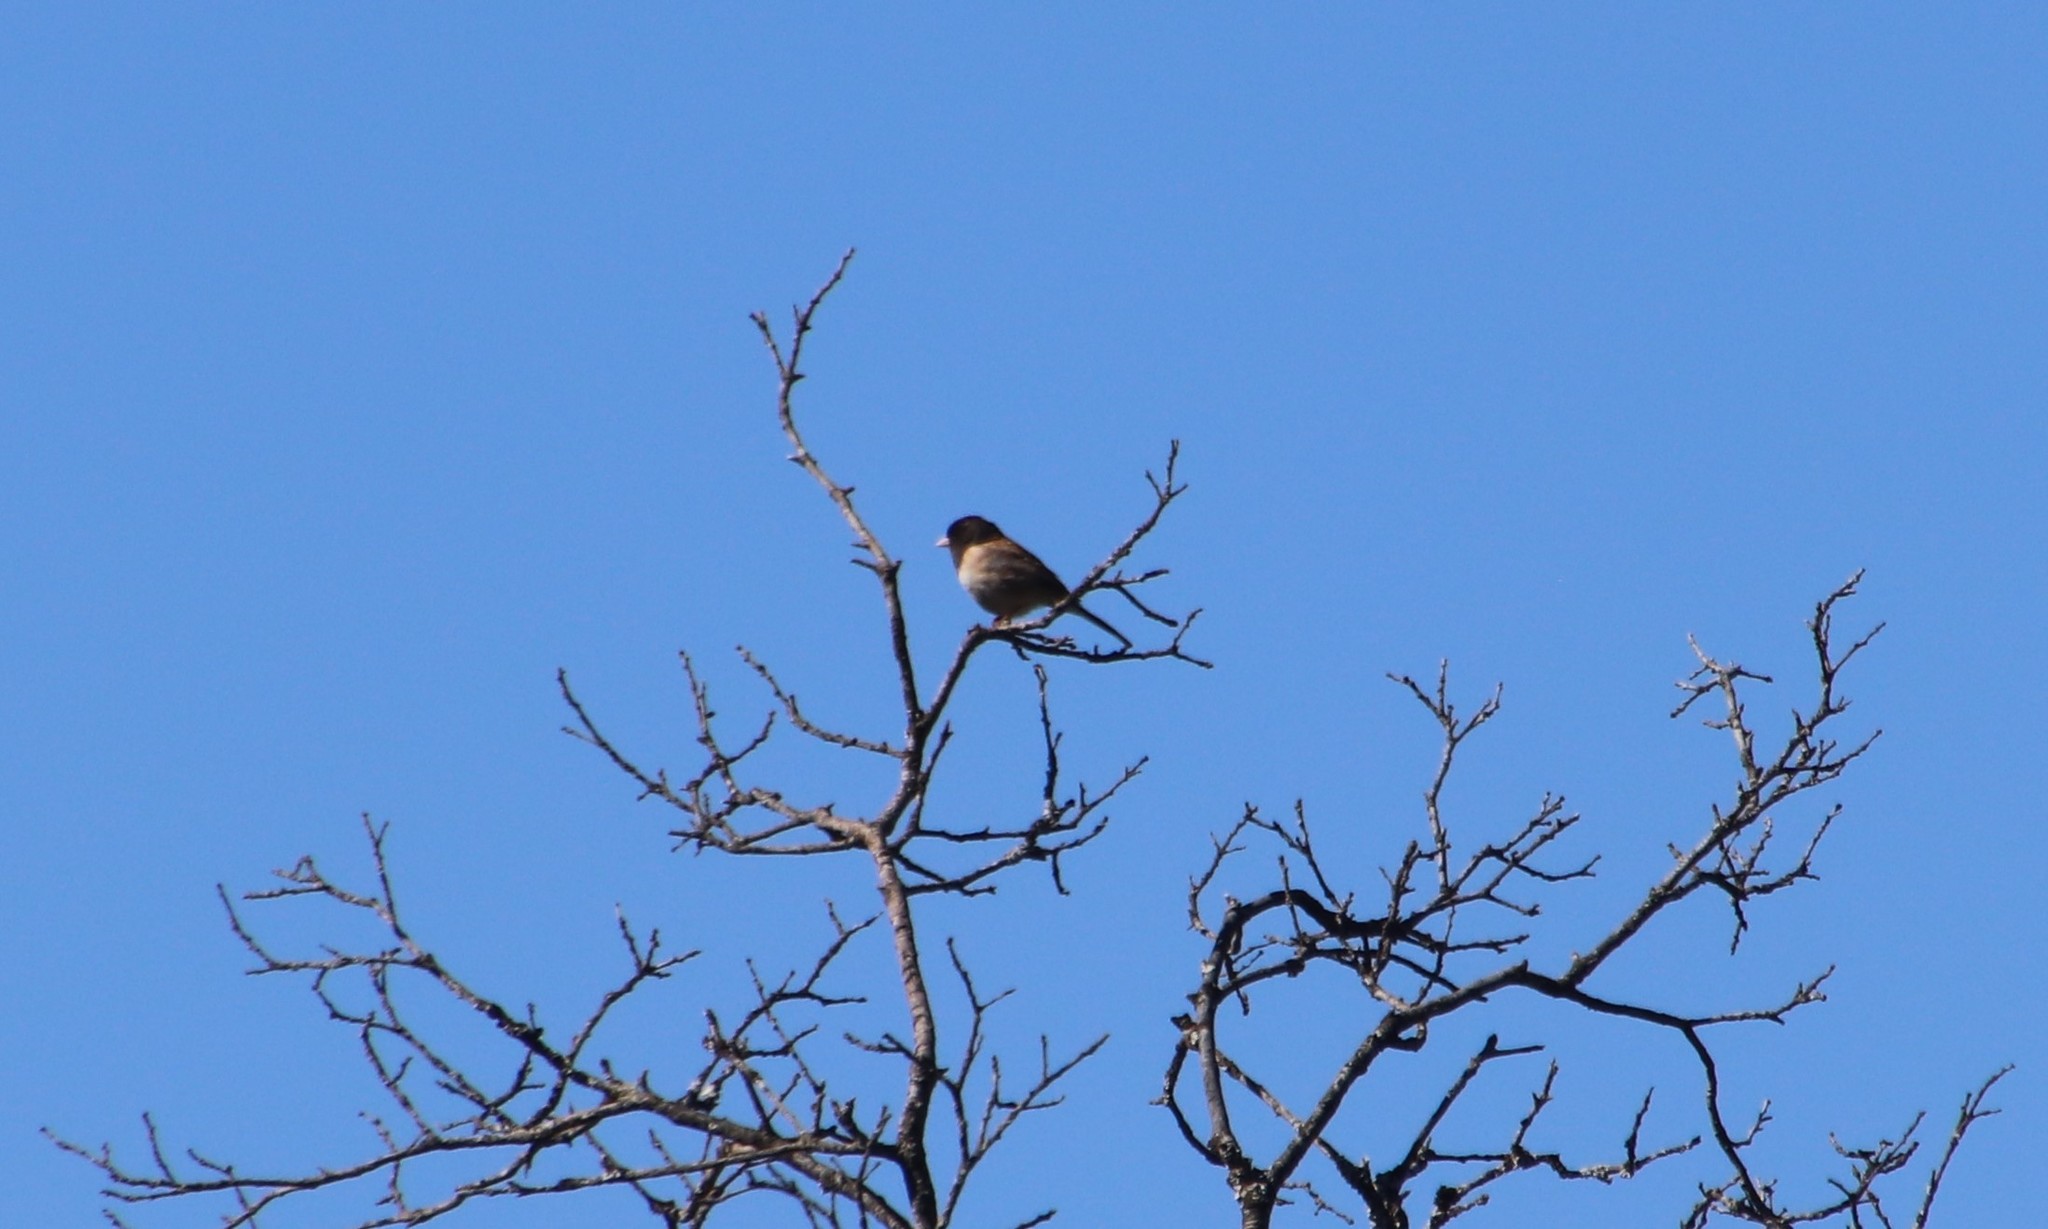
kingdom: Animalia
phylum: Chordata
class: Aves
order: Passeriformes
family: Passerellidae
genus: Junco
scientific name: Junco hyemalis
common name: Dark-eyed junco
